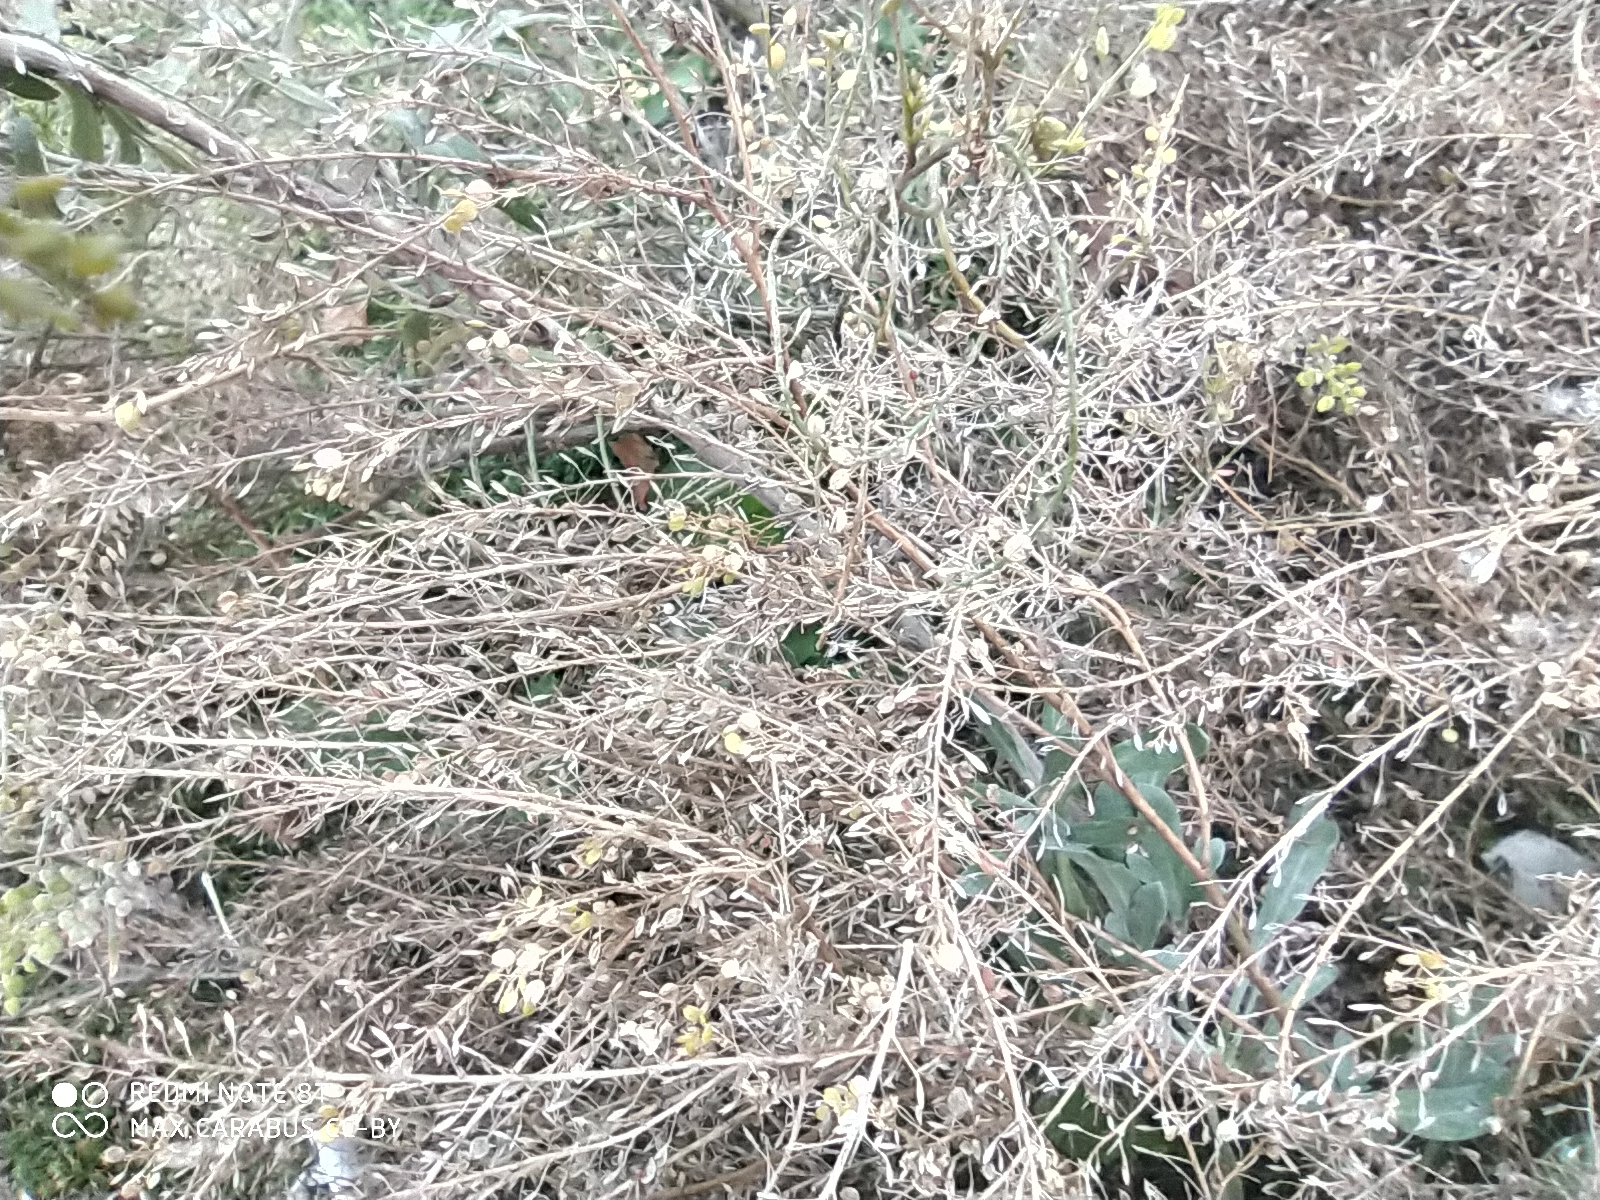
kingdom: Plantae
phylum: Tracheophyta
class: Magnoliopsida
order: Brassicales
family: Brassicaceae
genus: Lepidium
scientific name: Lepidium ruderale
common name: Narrow-leaved pepperwort
